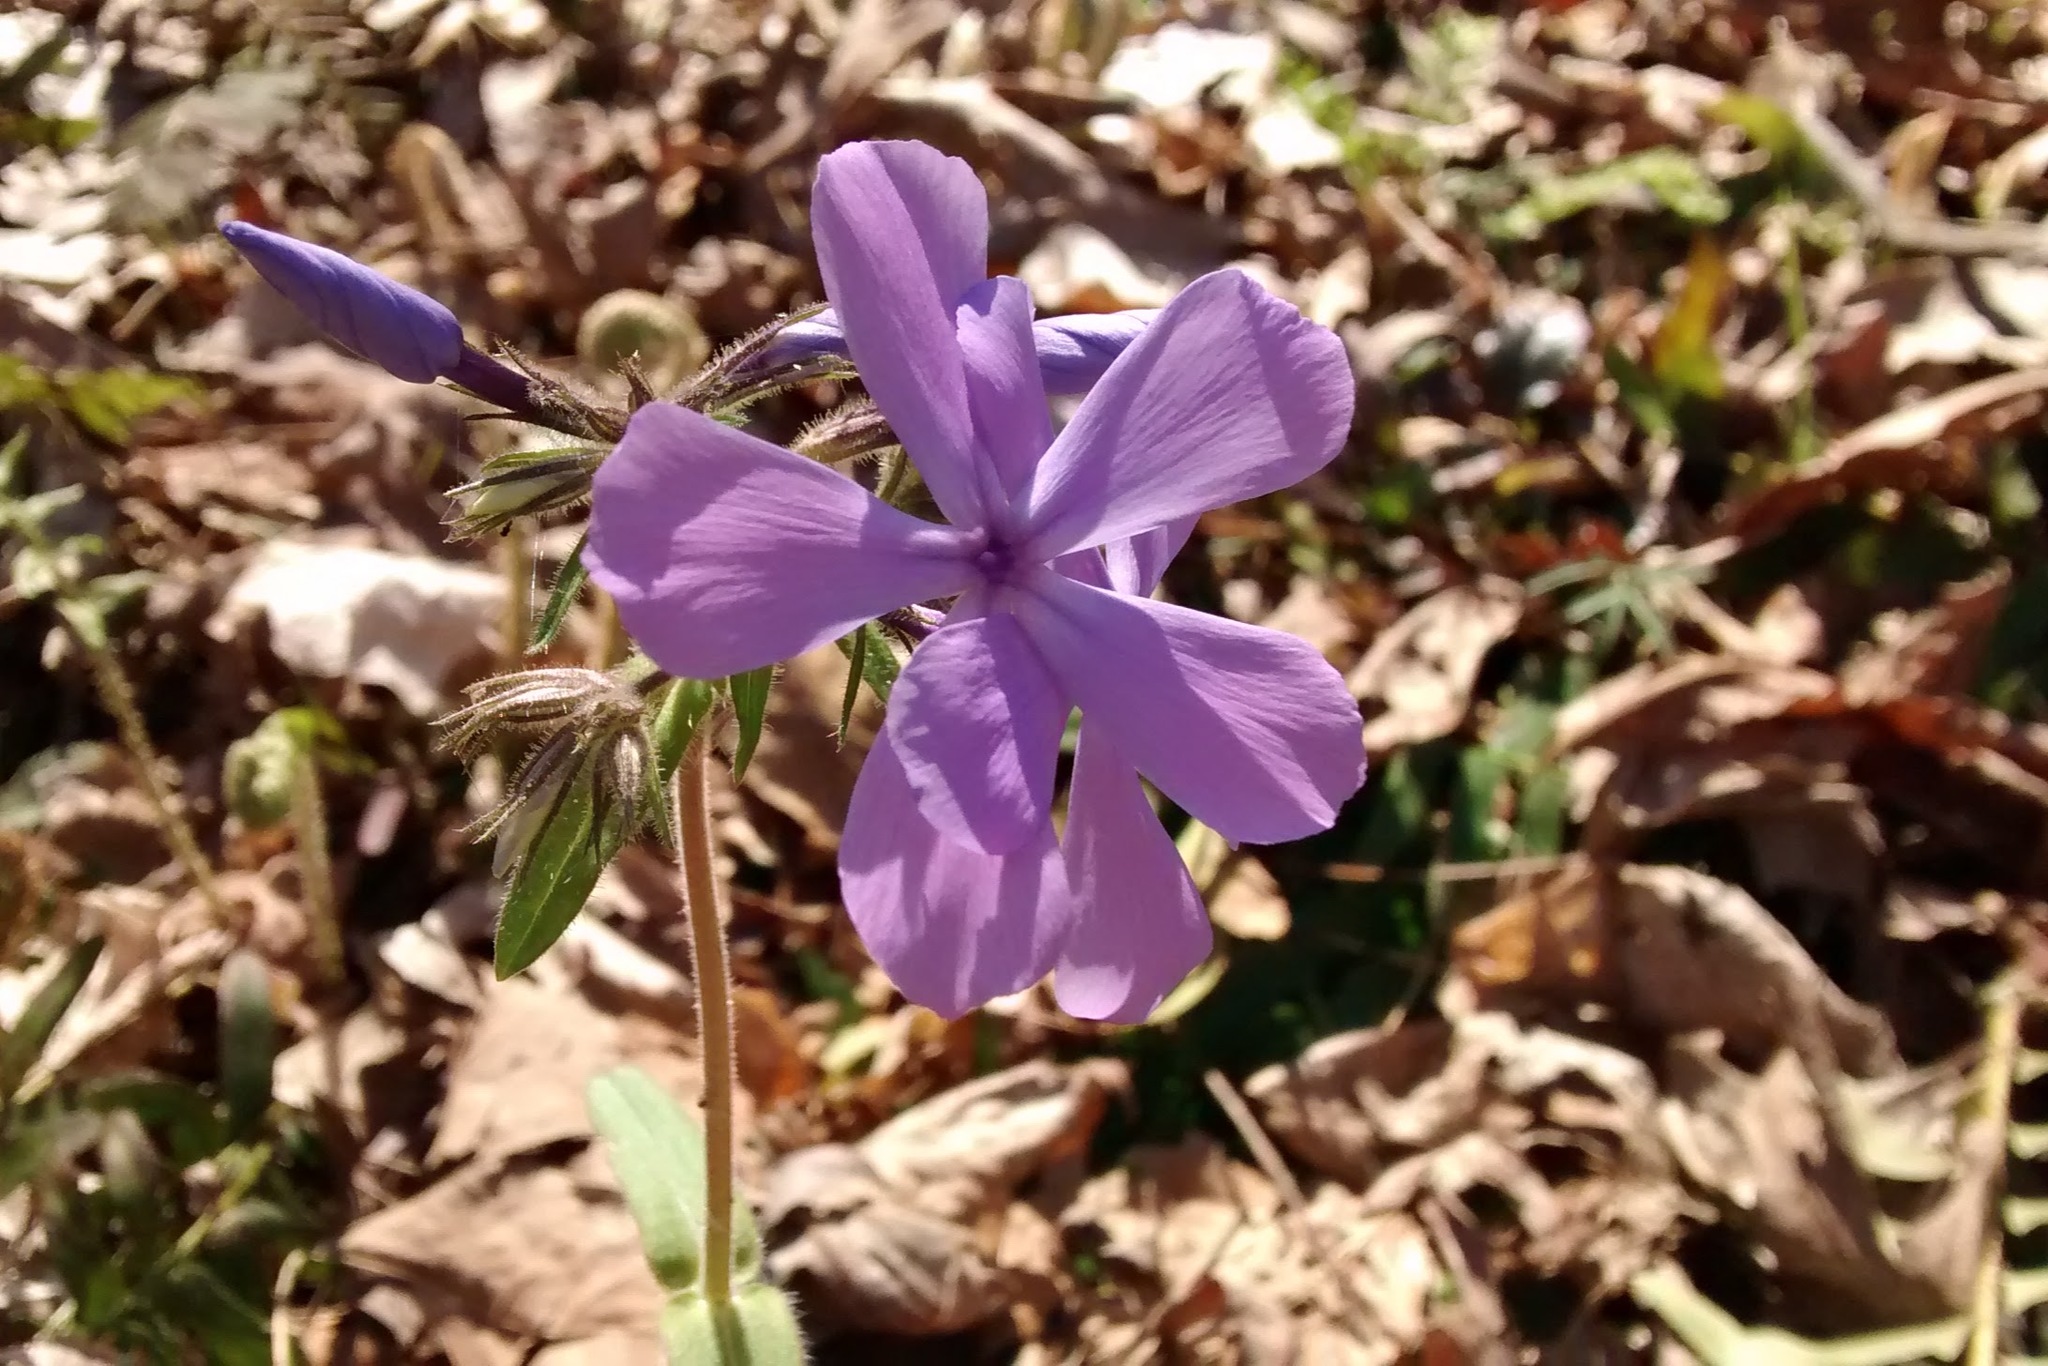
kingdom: Plantae
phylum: Tracheophyta
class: Magnoliopsida
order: Ericales
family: Polemoniaceae
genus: Phlox
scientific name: Phlox divaricata
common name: Blue phlox
